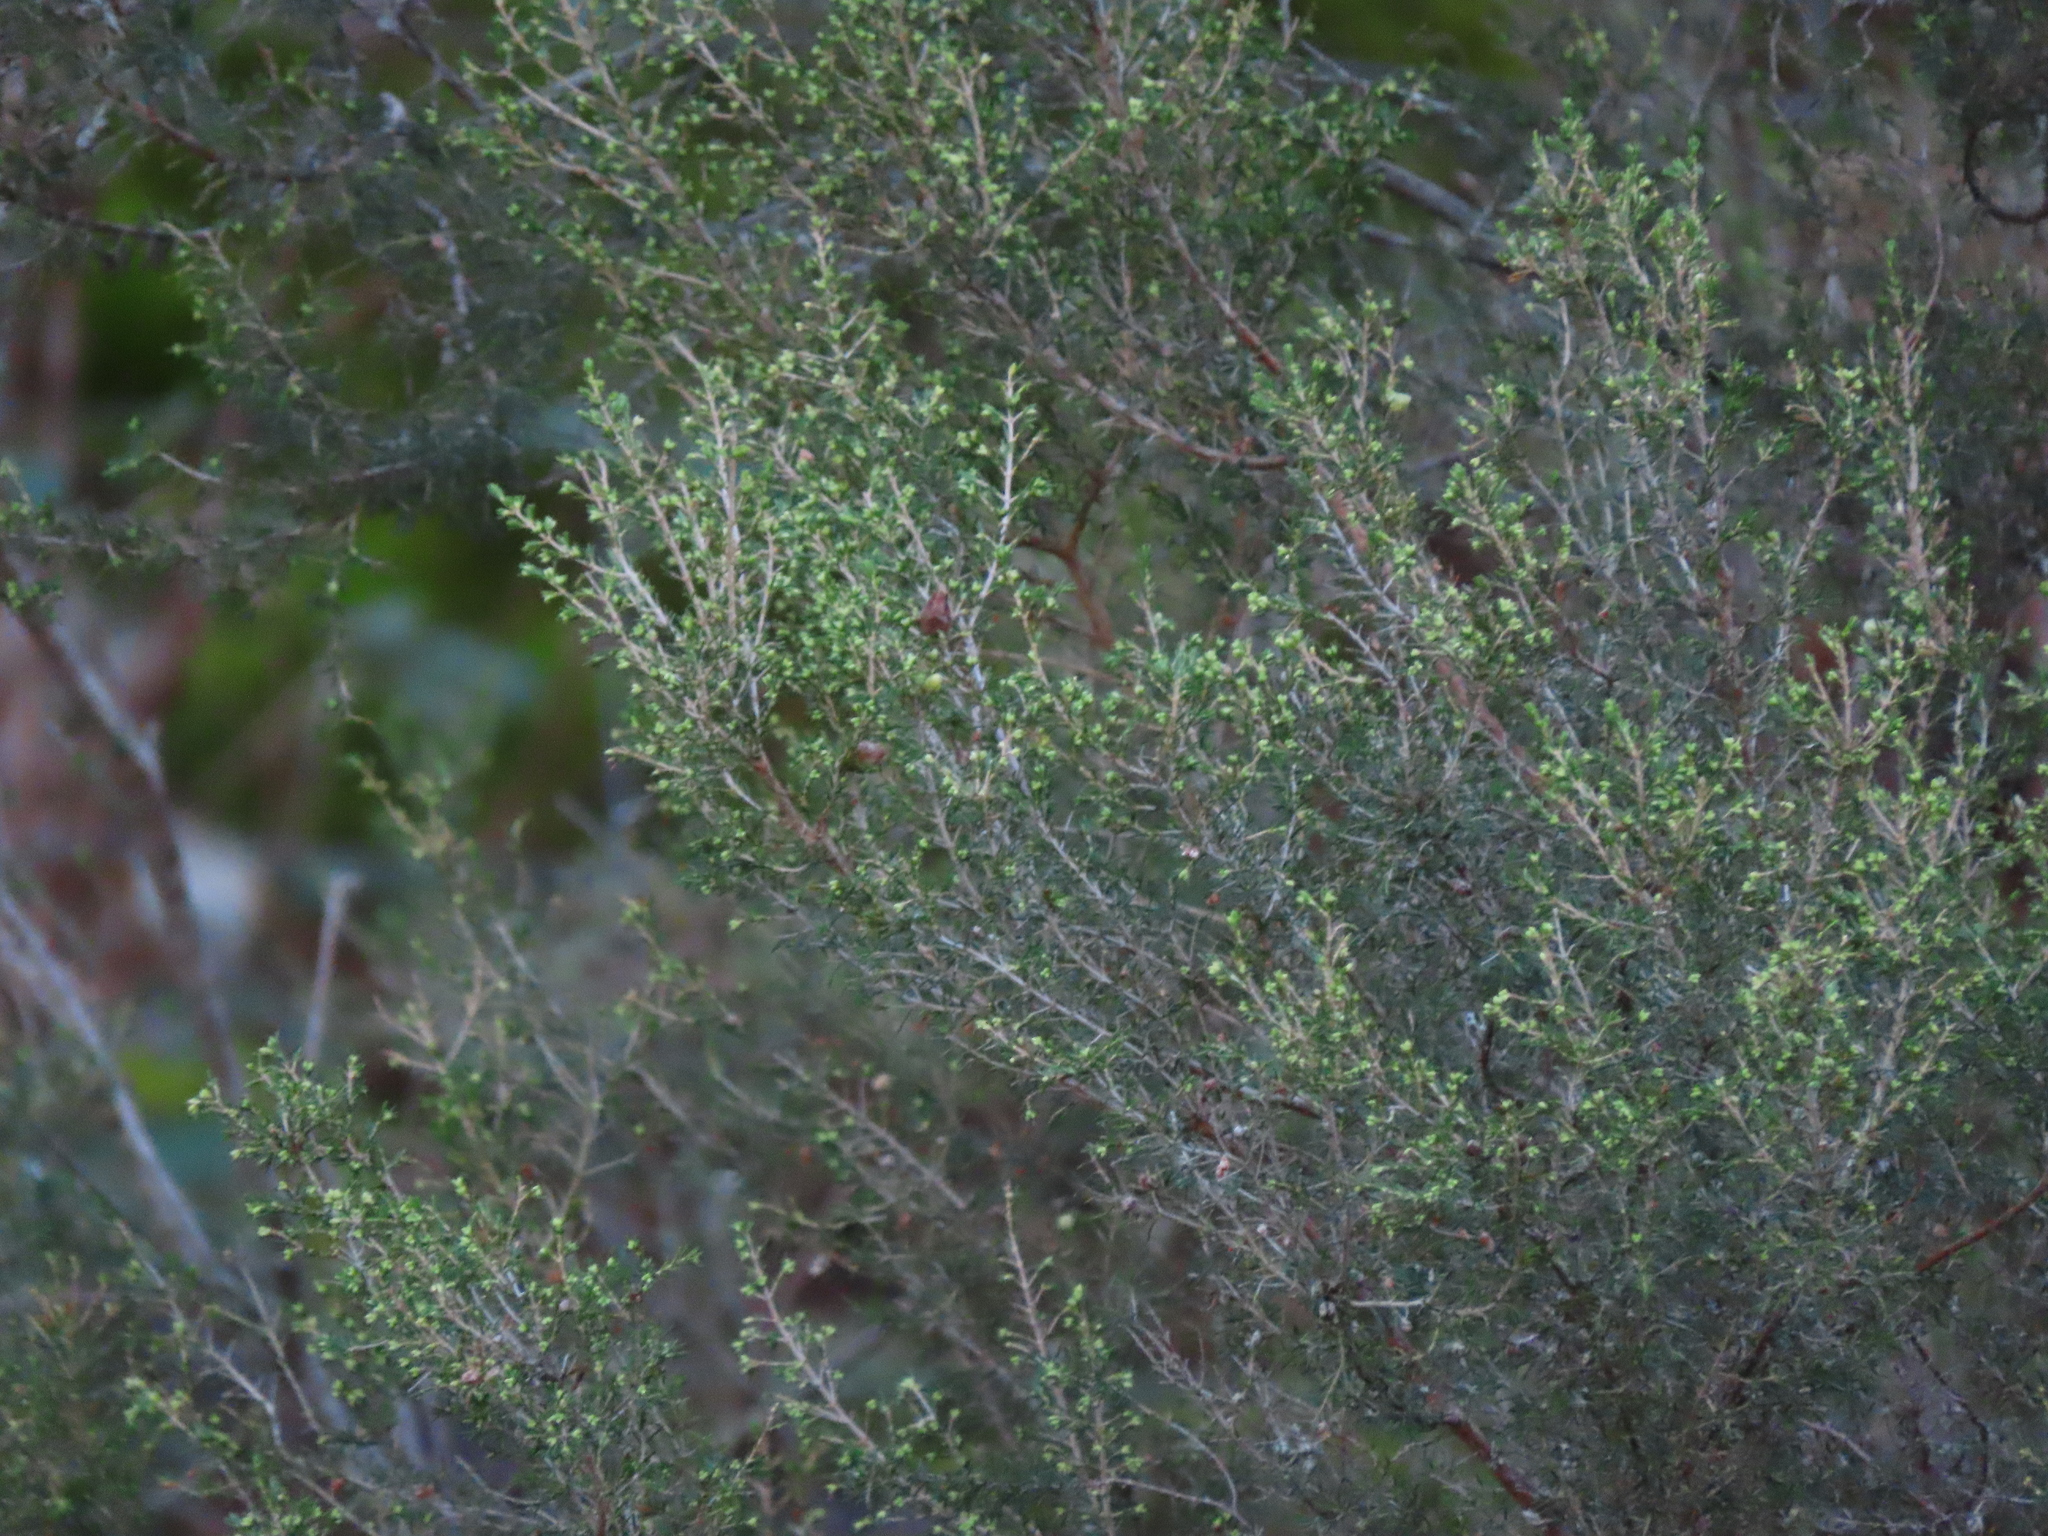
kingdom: Plantae
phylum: Tracheophyta
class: Magnoliopsida
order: Ericales
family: Ericaceae
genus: Erica
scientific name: Erica arborea
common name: Tree heath
